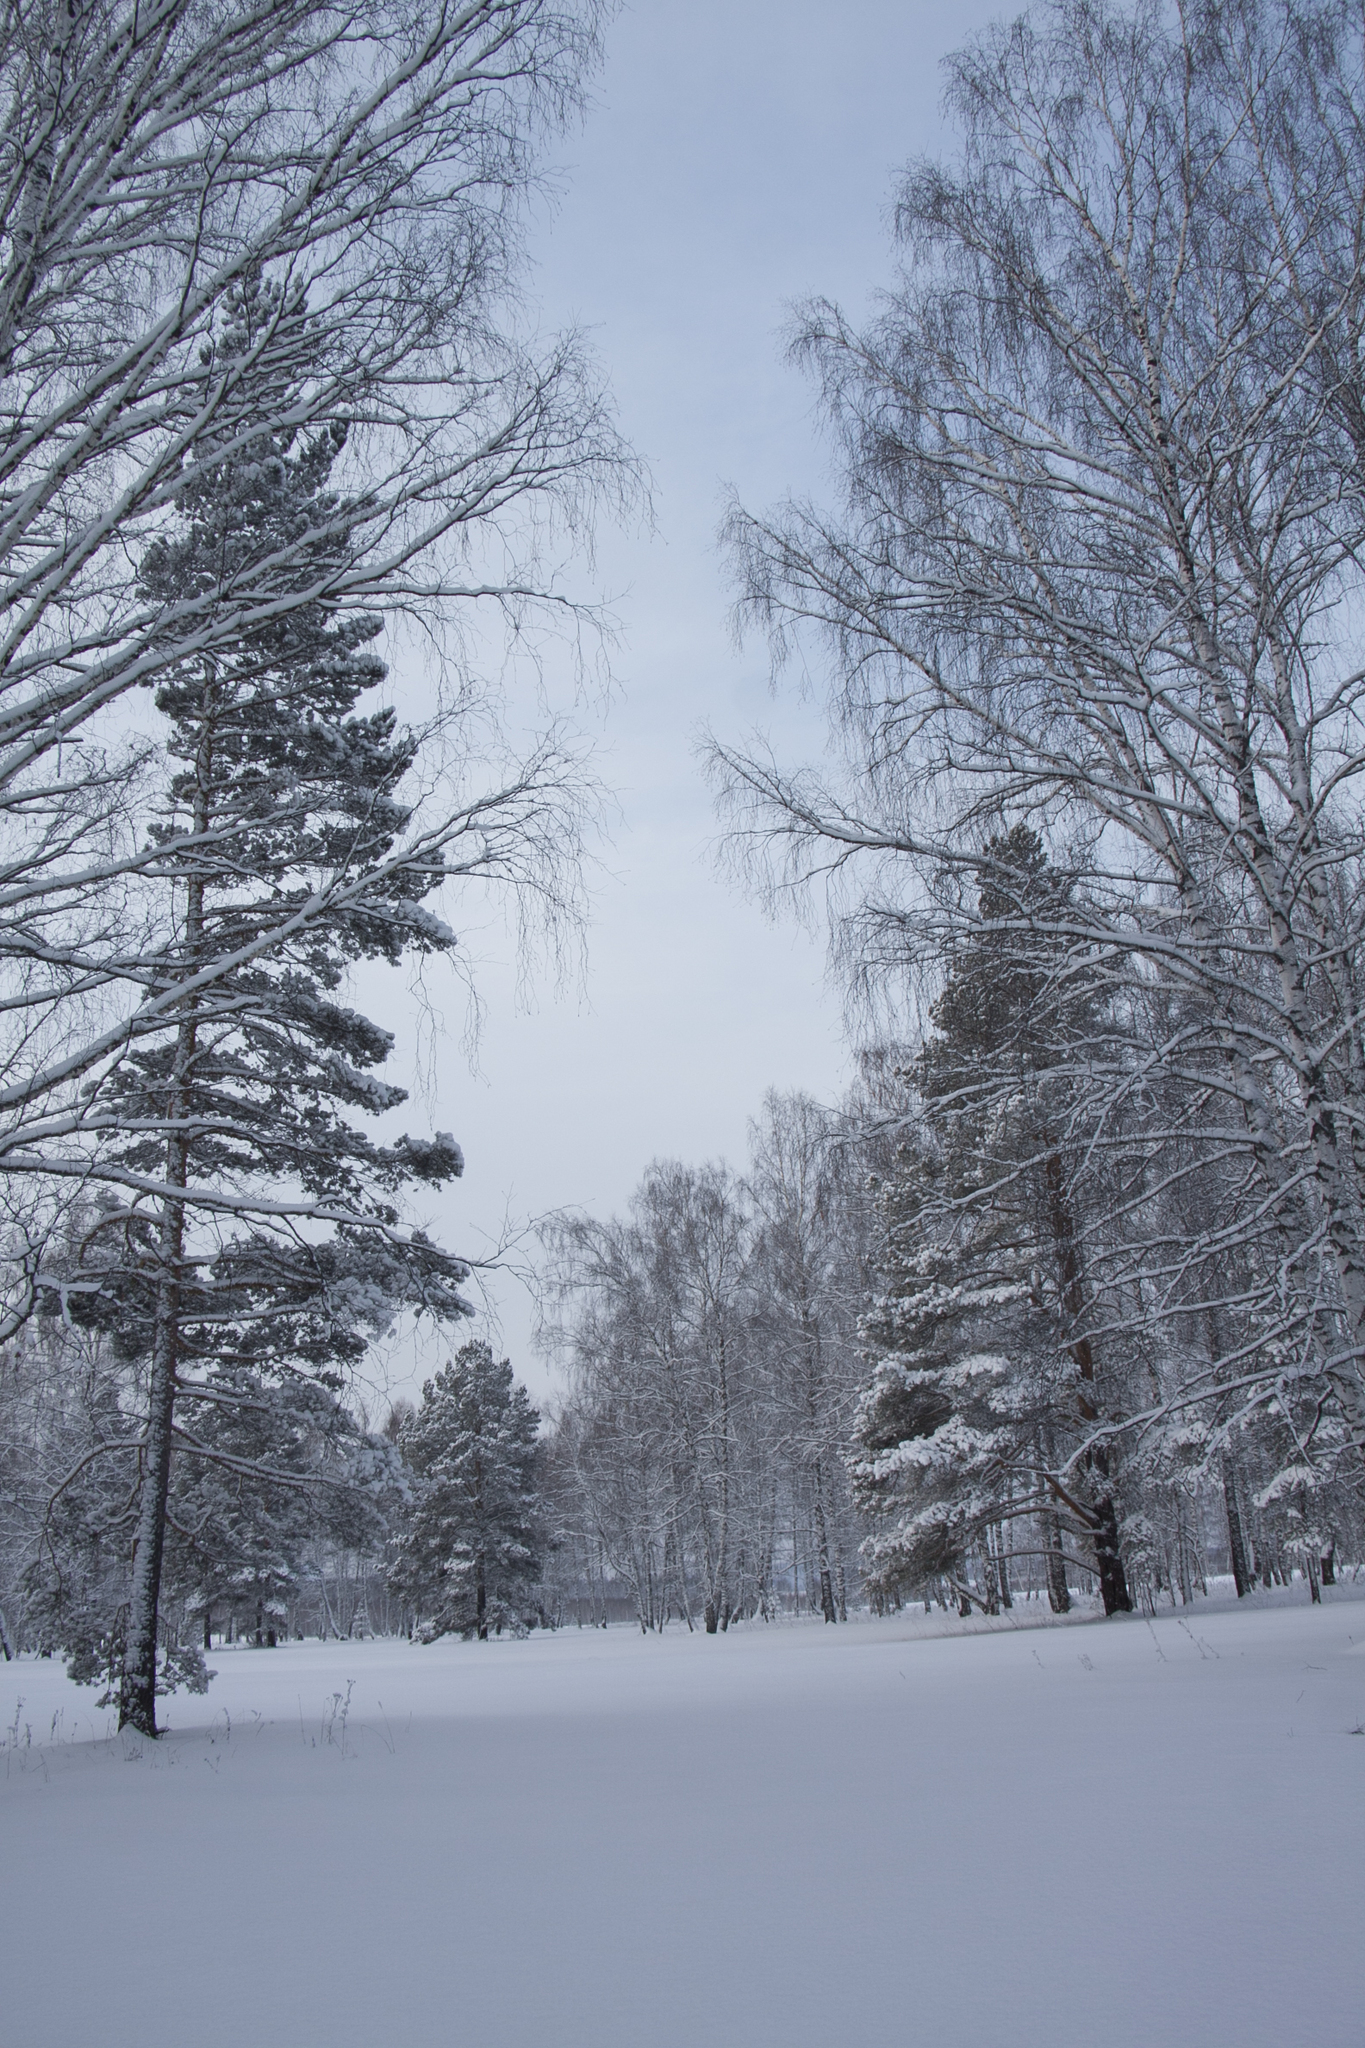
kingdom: Plantae
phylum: Tracheophyta
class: Pinopsida
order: Pinales
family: Pinaceae
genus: Pinus
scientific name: Pinus sylvestris
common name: Scots pine
